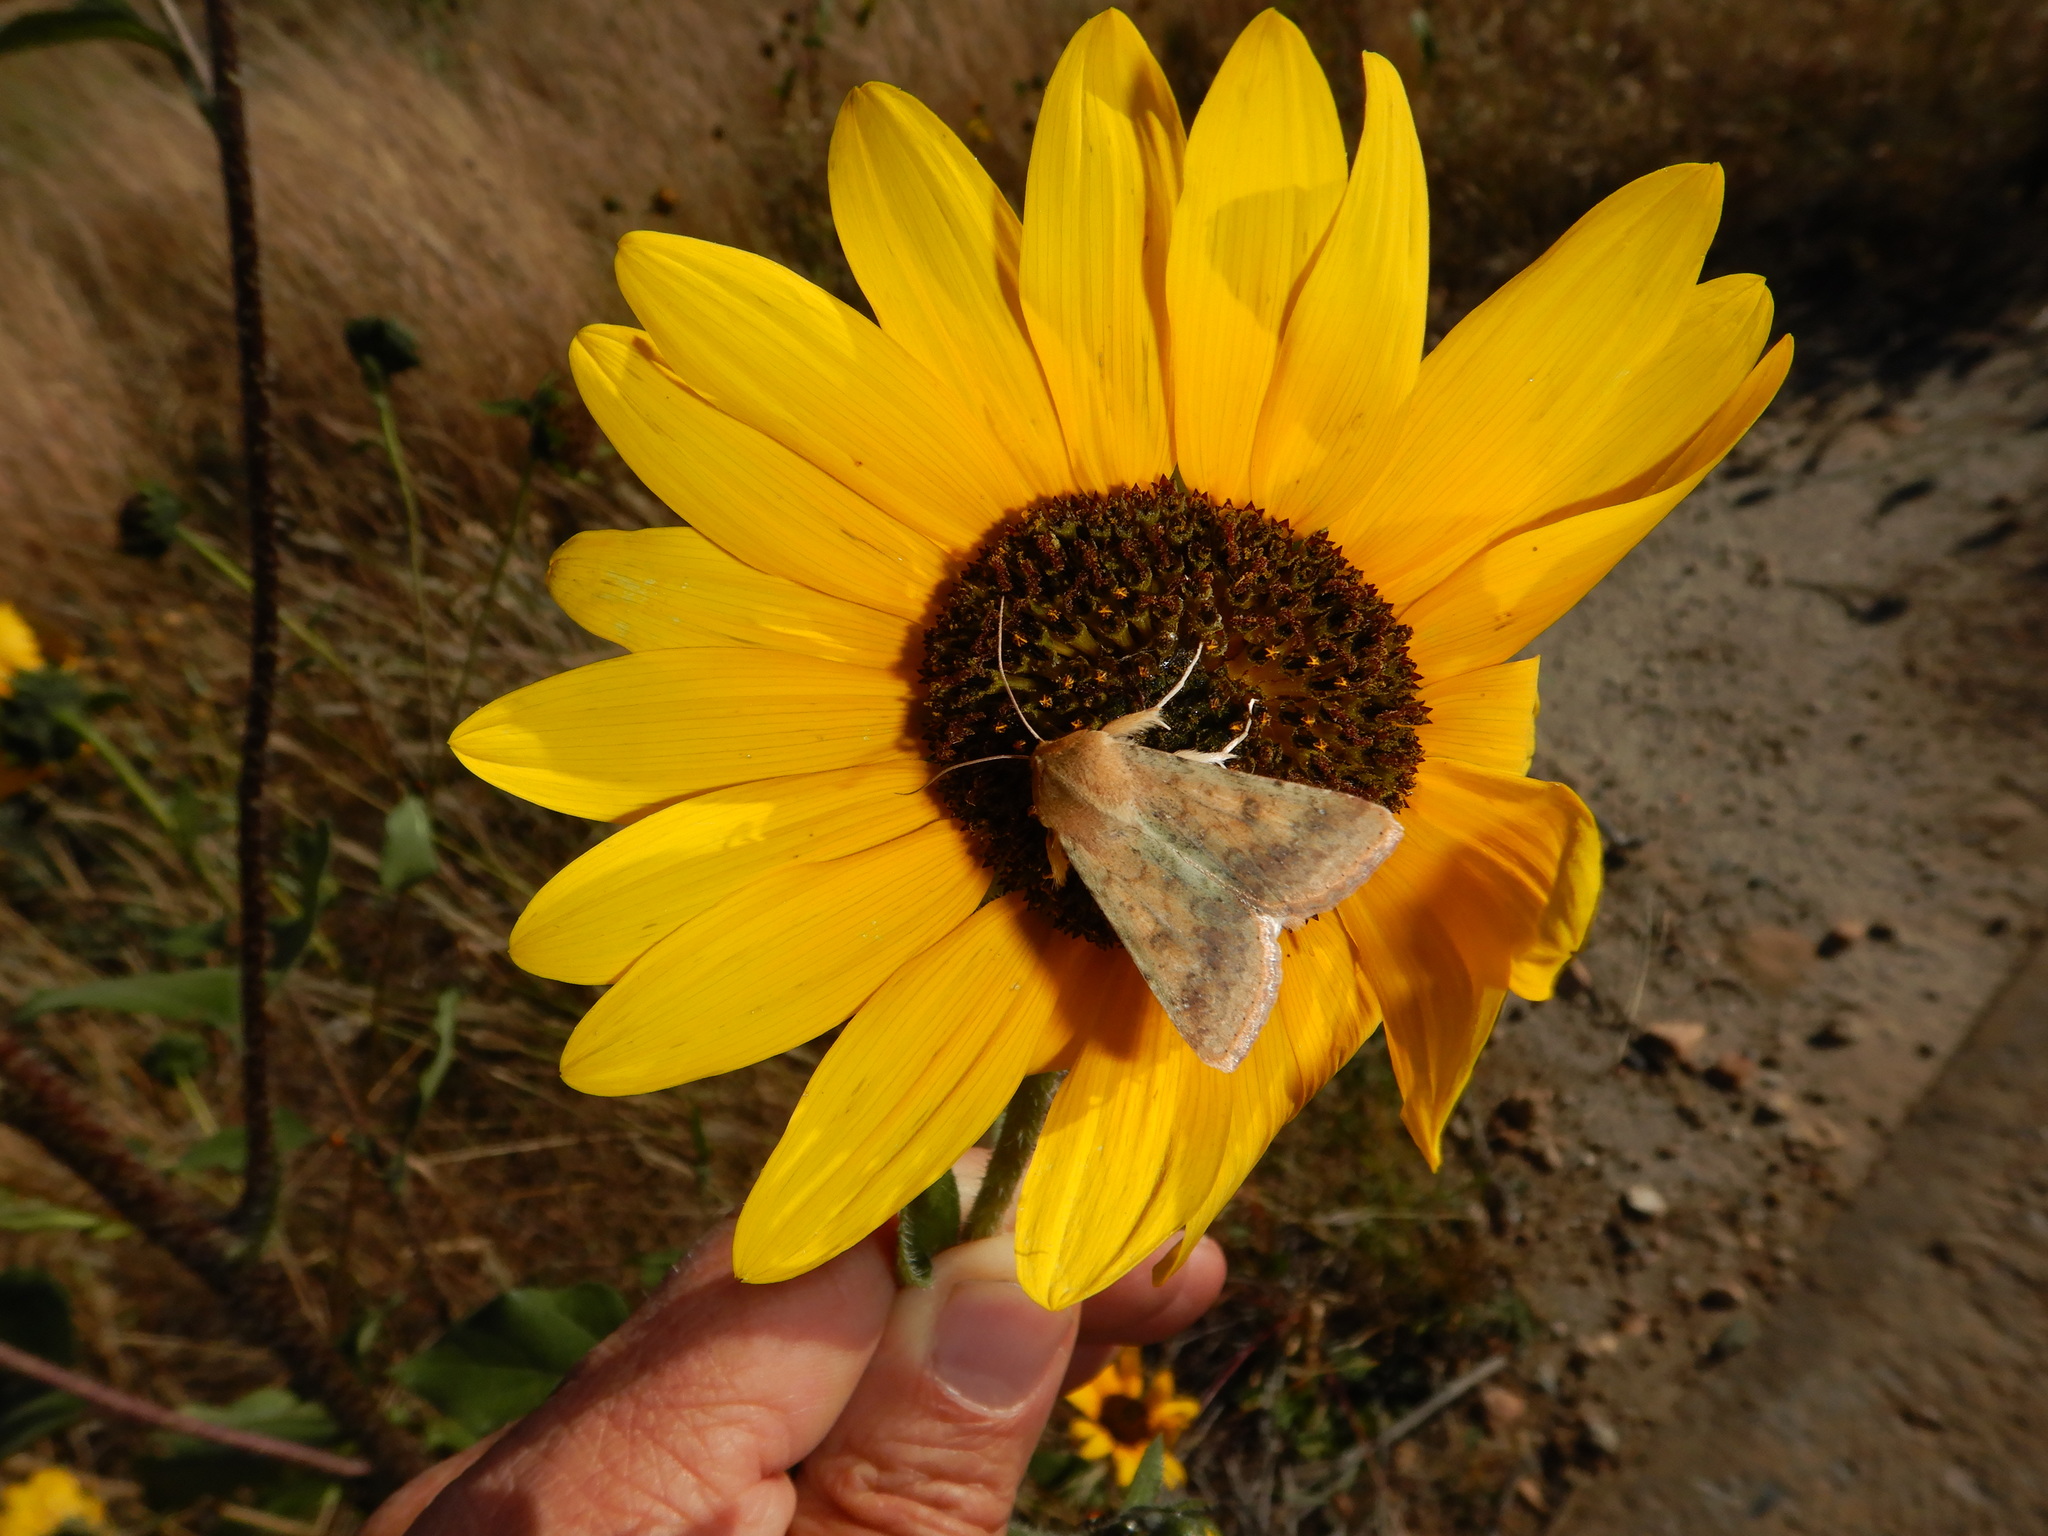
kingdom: Animalia
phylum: Arthropoda
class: Insecta
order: Lepidoptera
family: Noctuidae
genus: Helicoverpa
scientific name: Helicoverpa zea
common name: Bollworm
